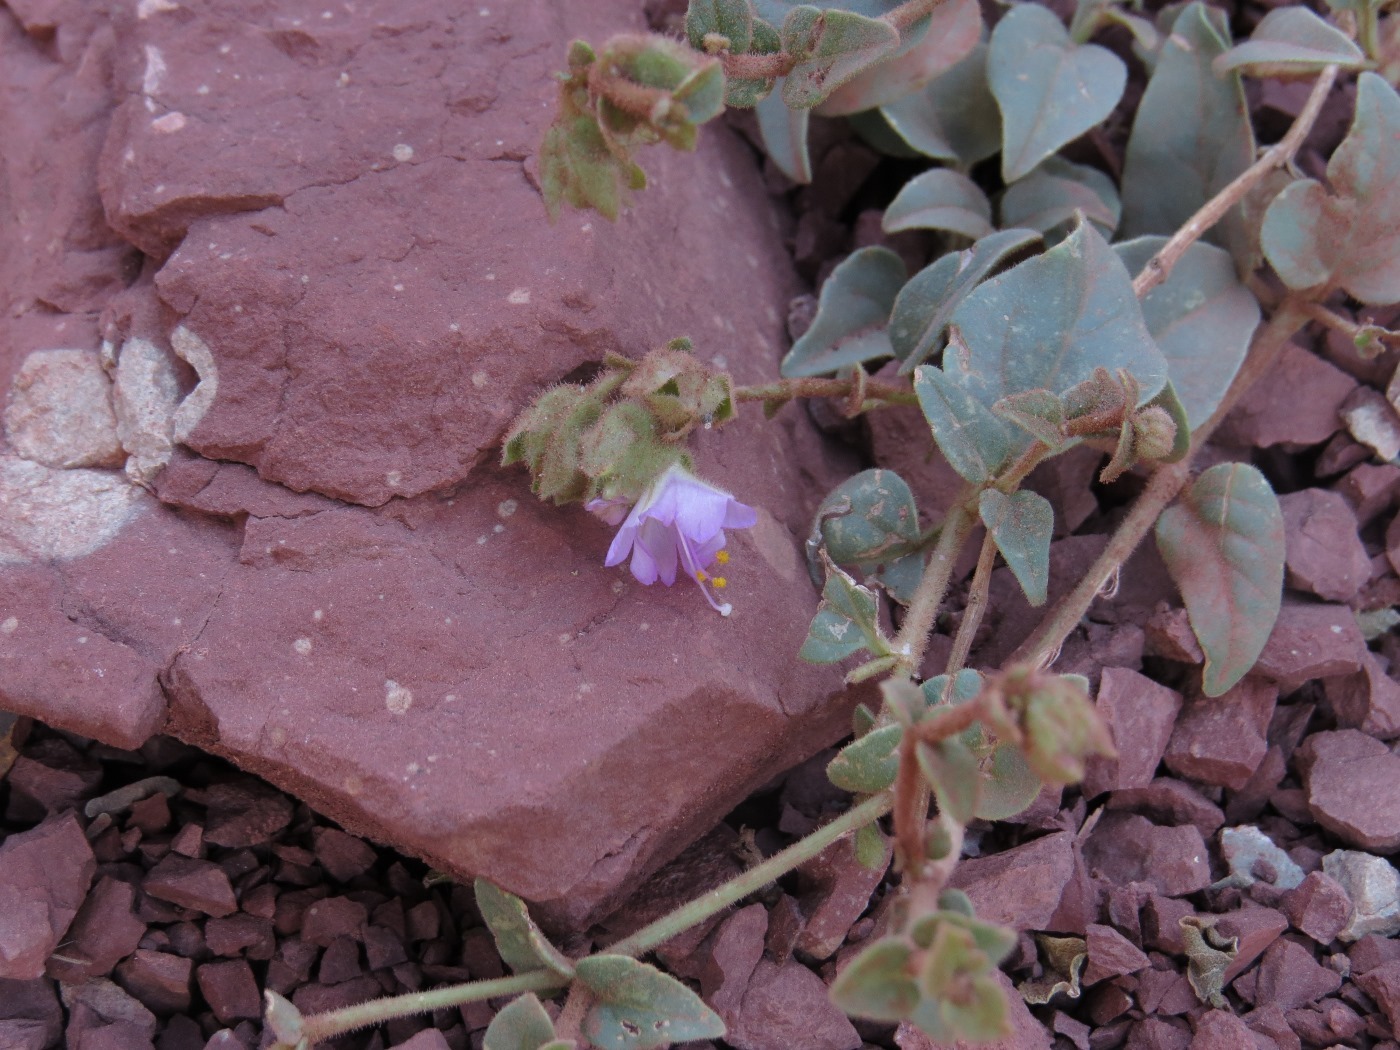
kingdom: Plantae
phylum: Tracheophyta
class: Magnoliopsida
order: Caryophyllales
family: Nyctaginaceae
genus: Mirabilis
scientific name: Mirabilis comata
